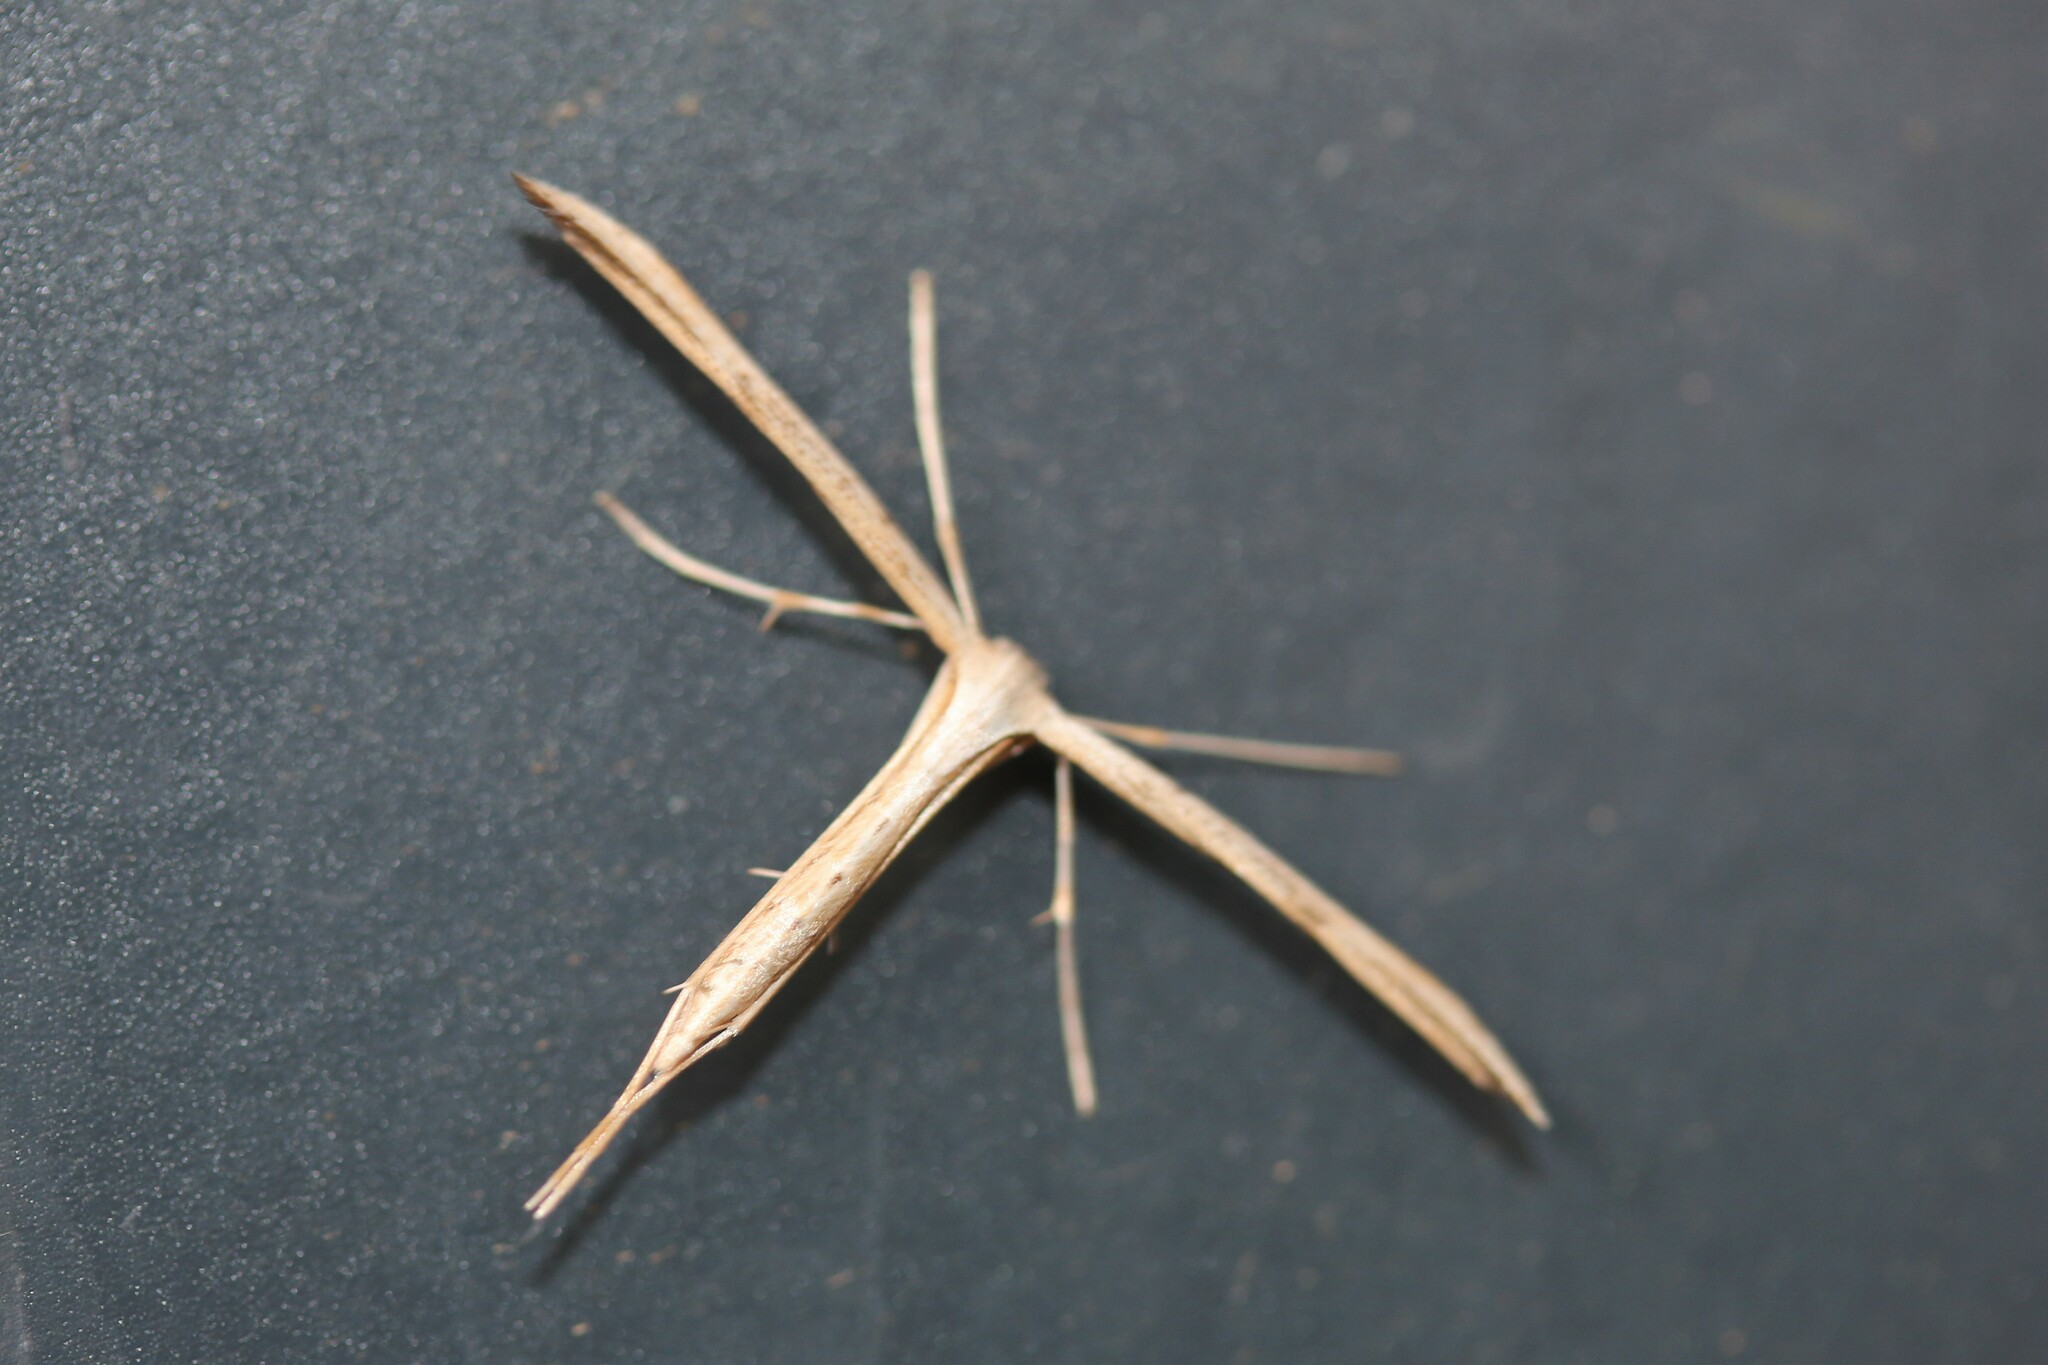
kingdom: Animalia
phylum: Arthropoda
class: Insecta
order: Lepidoptera
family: Pterophoridae
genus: Emmelina
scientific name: Emmelina monodactyla
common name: Common plume
